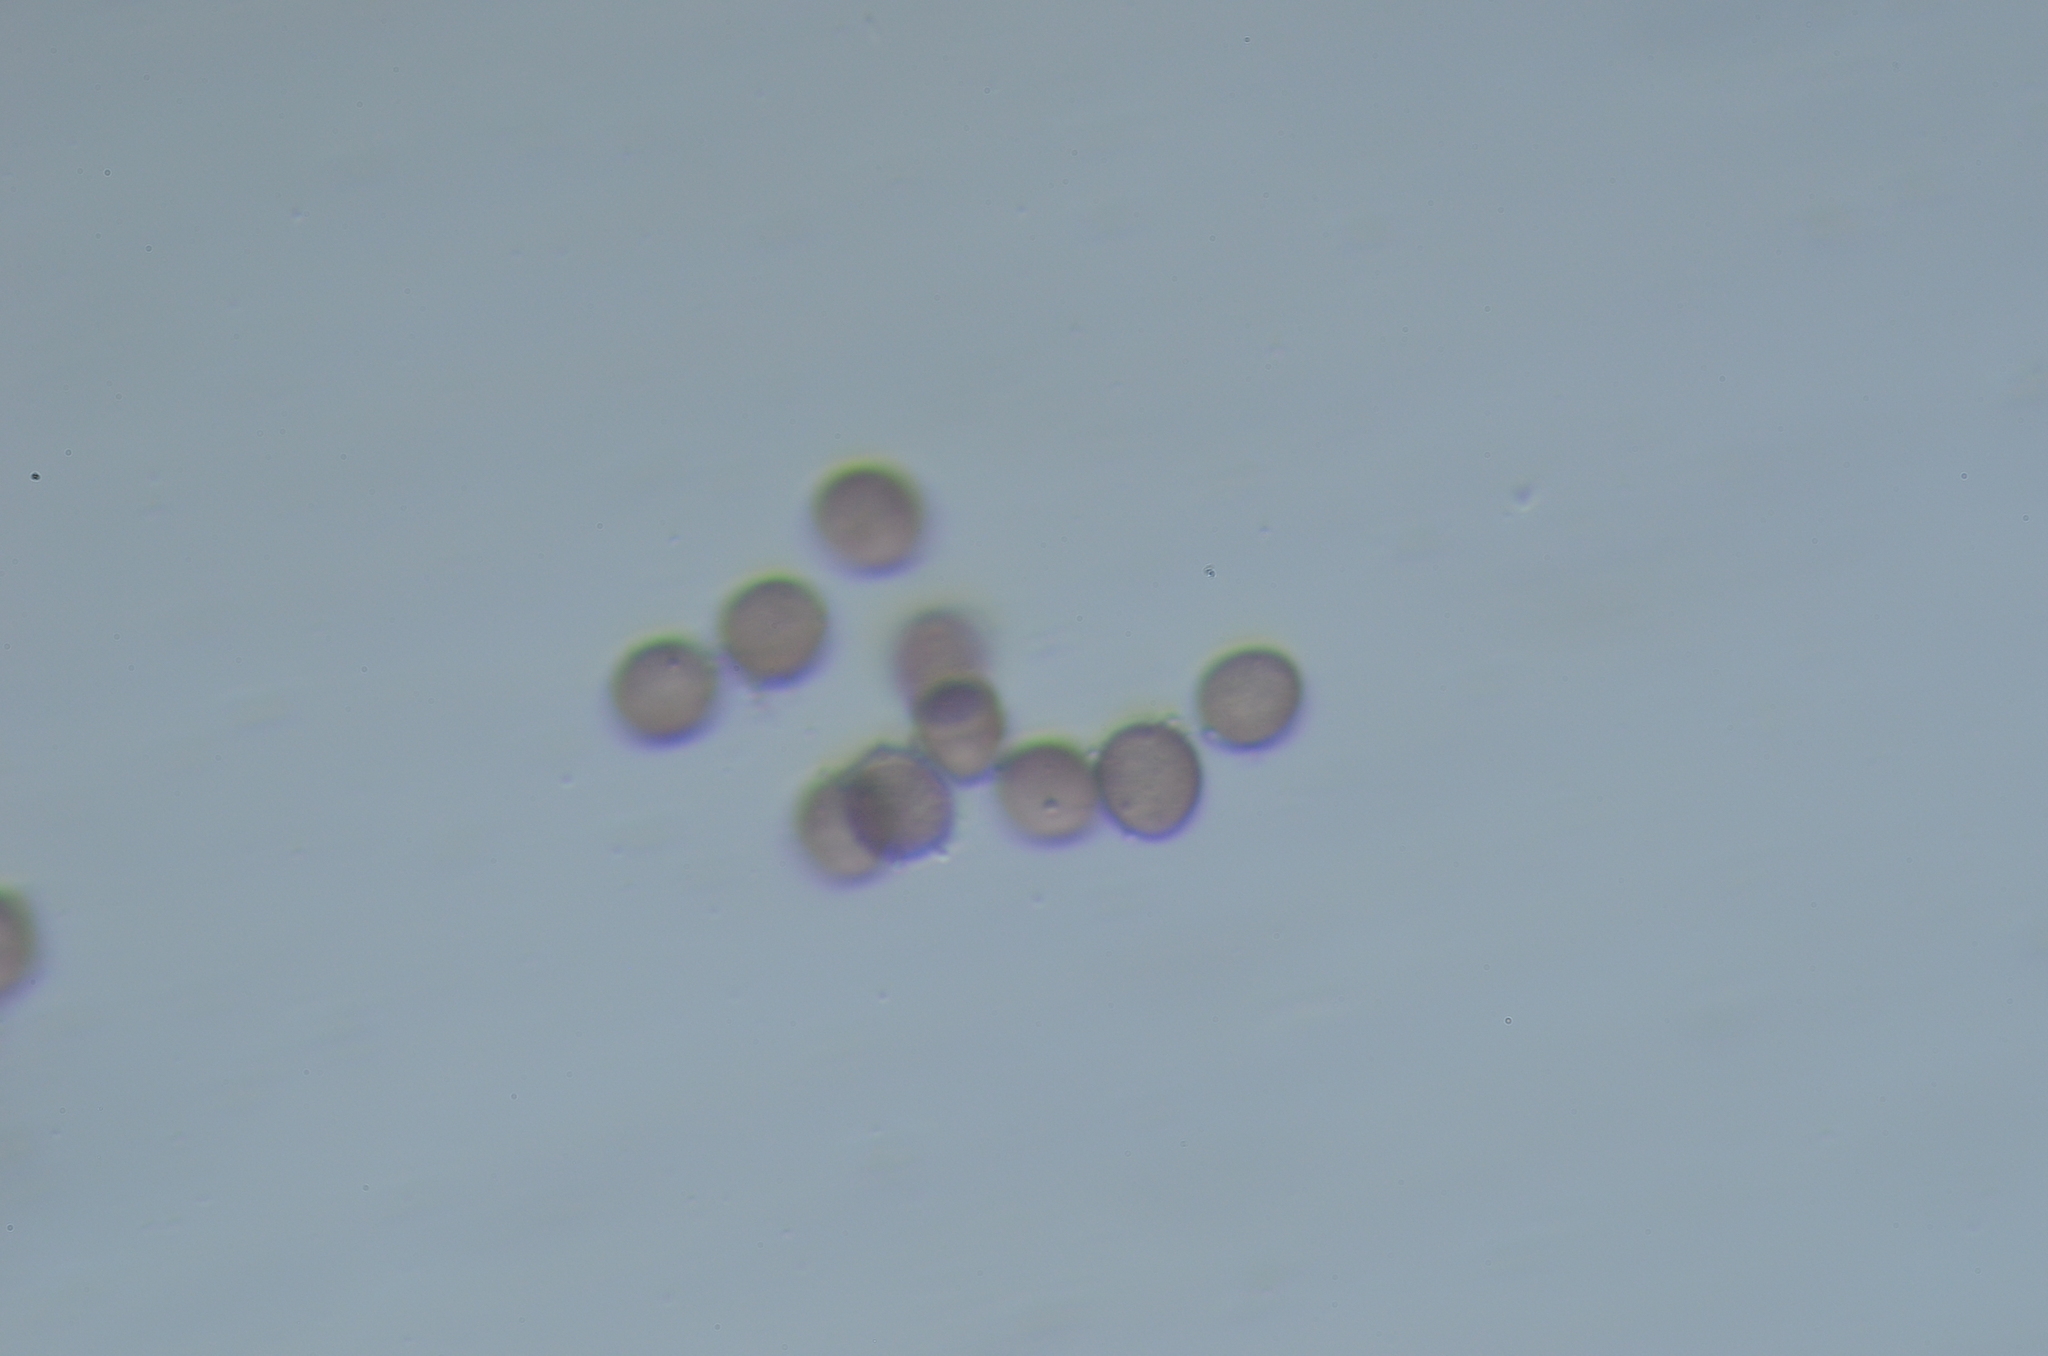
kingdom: Protozoa
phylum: Mycetozoa
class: Myxomycetes
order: Physarales
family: Physaraceae
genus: Badhamia
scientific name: Badhamia foliicola
